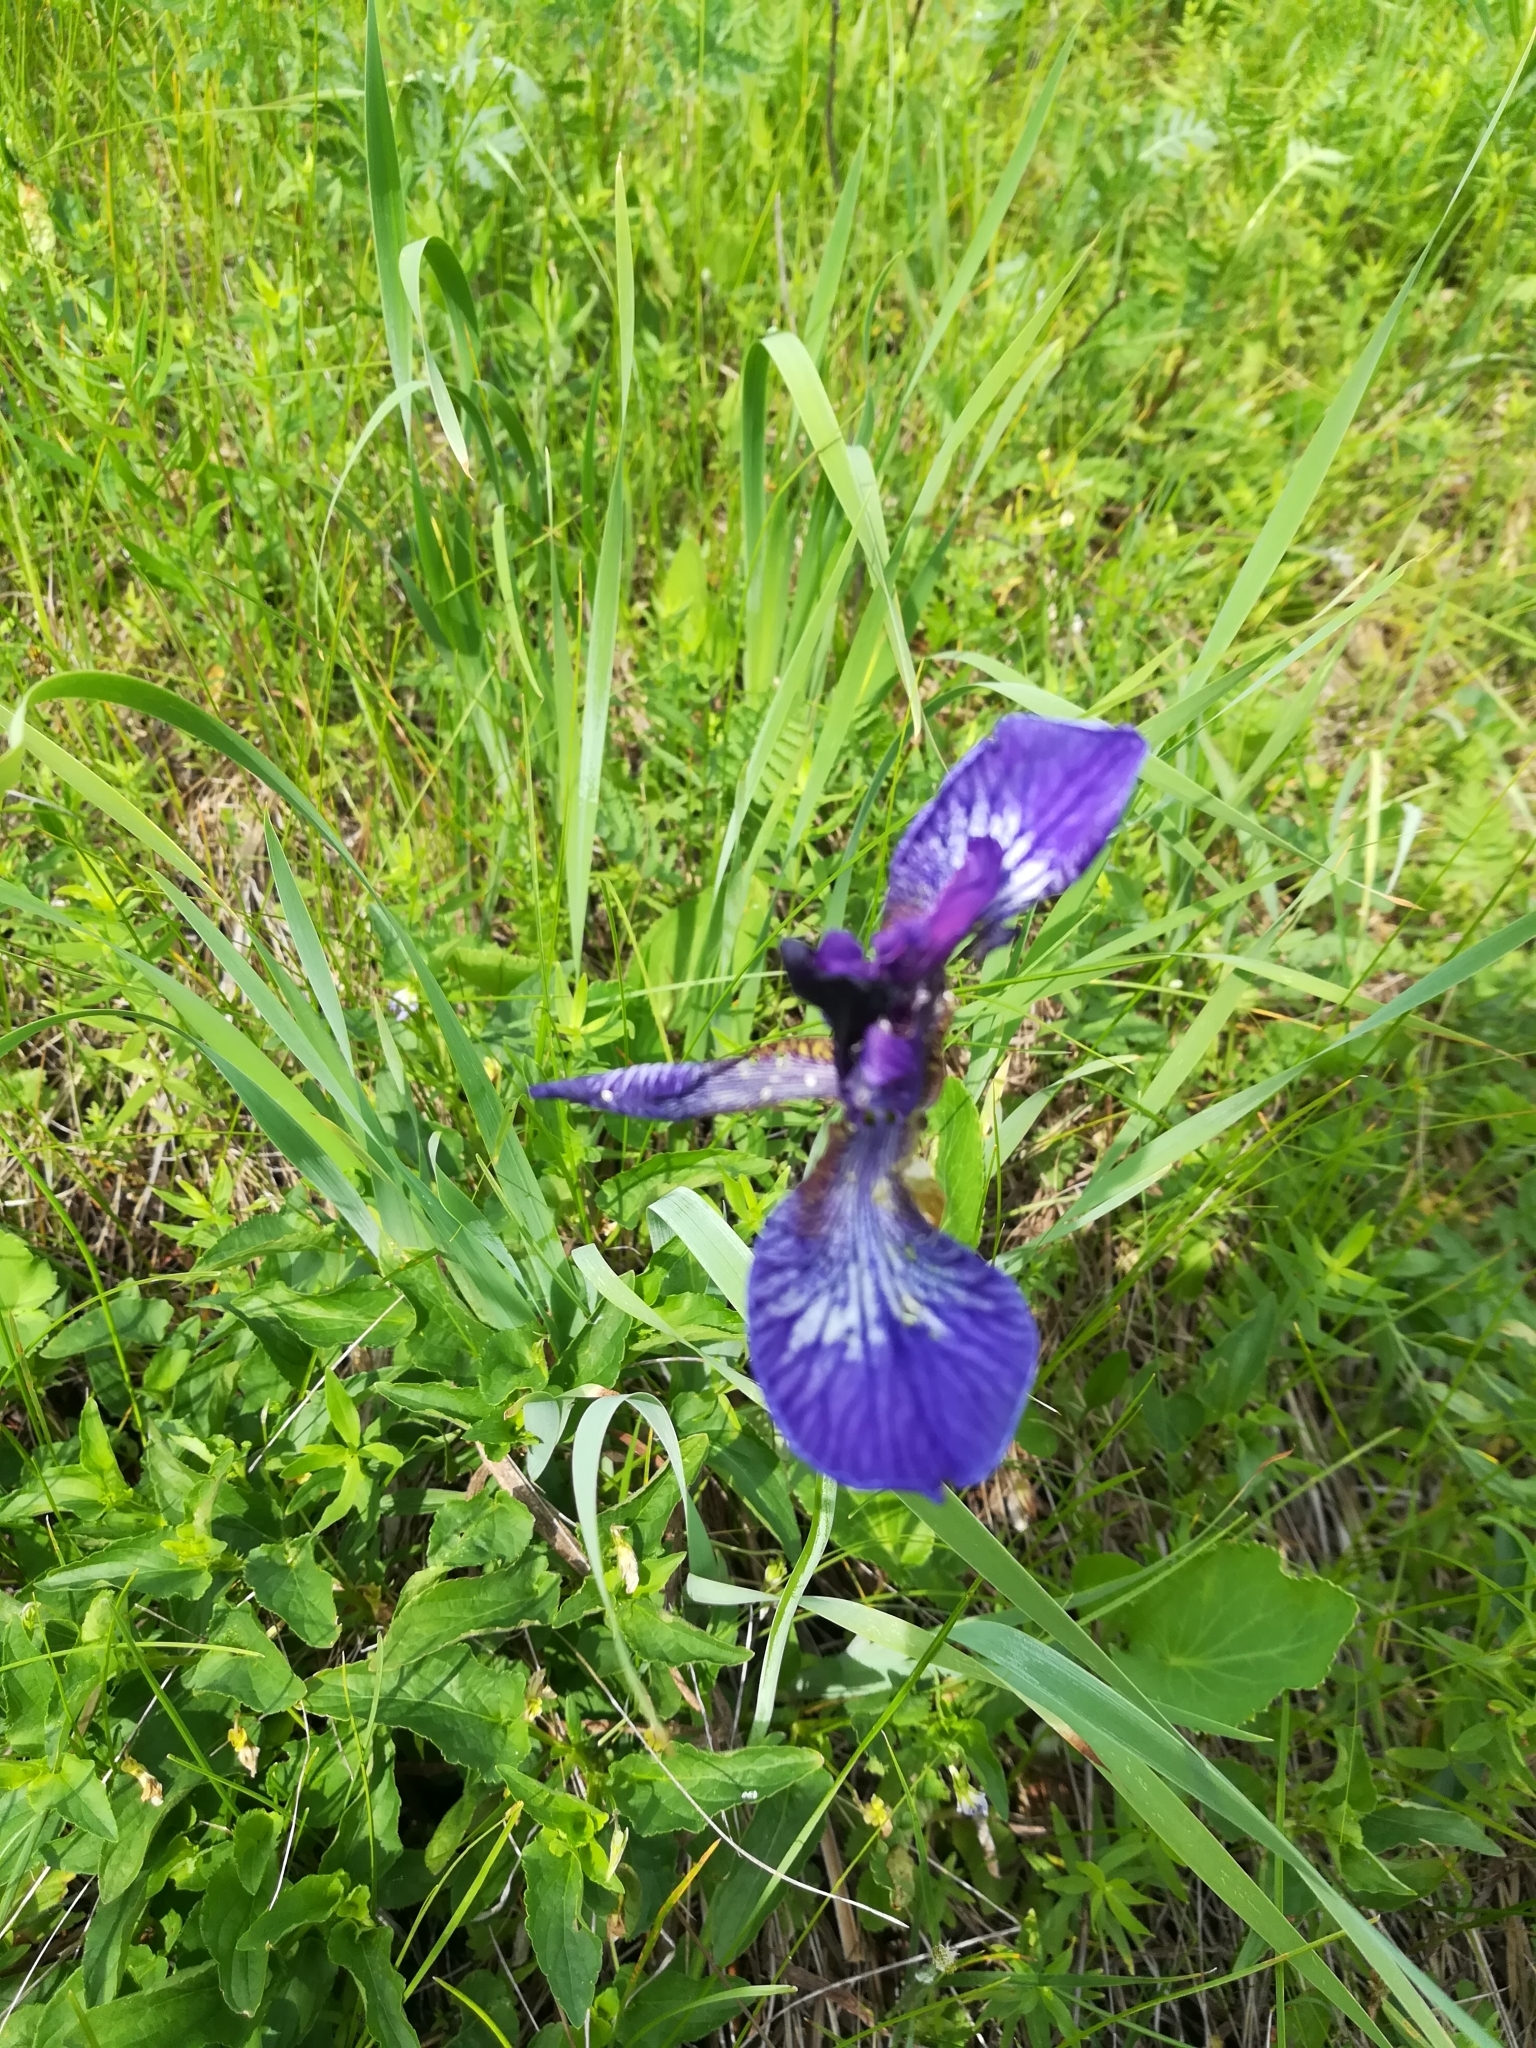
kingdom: Plantae
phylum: Tracheophyta
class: Liliopsida
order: Asparagales
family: Iridaceae
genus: Iris
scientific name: Iris sibirica
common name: Siberian iris
